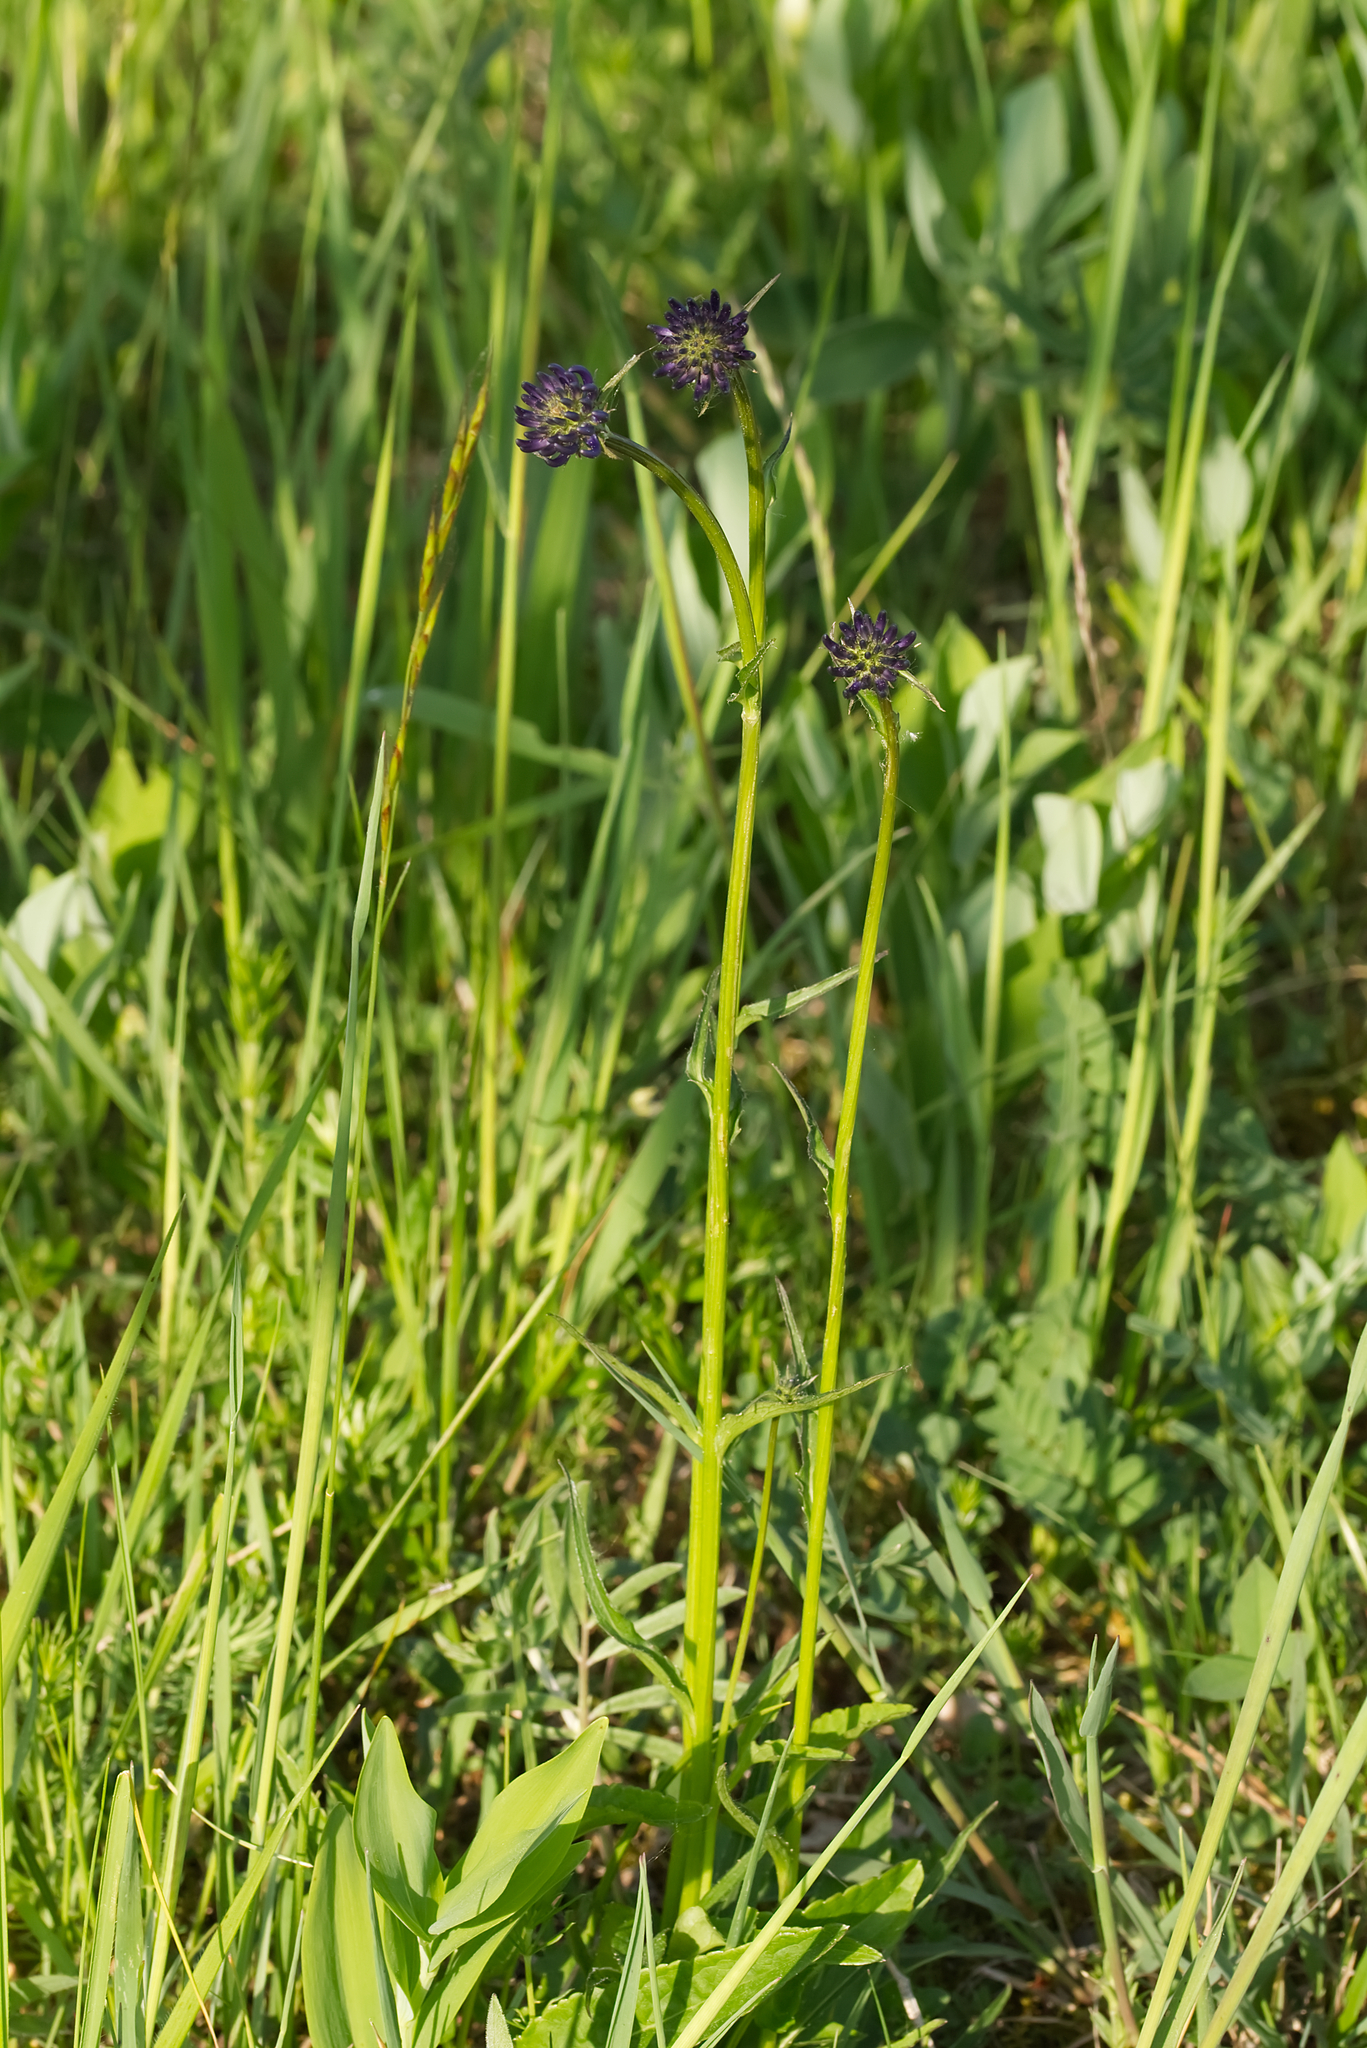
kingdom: Plantae
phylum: Tracheophyta
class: Magnoliopsida
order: Asterales
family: Campanulaceae
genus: Phyteuma
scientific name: Phyteuma orbiculare
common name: Round-headed rampion
